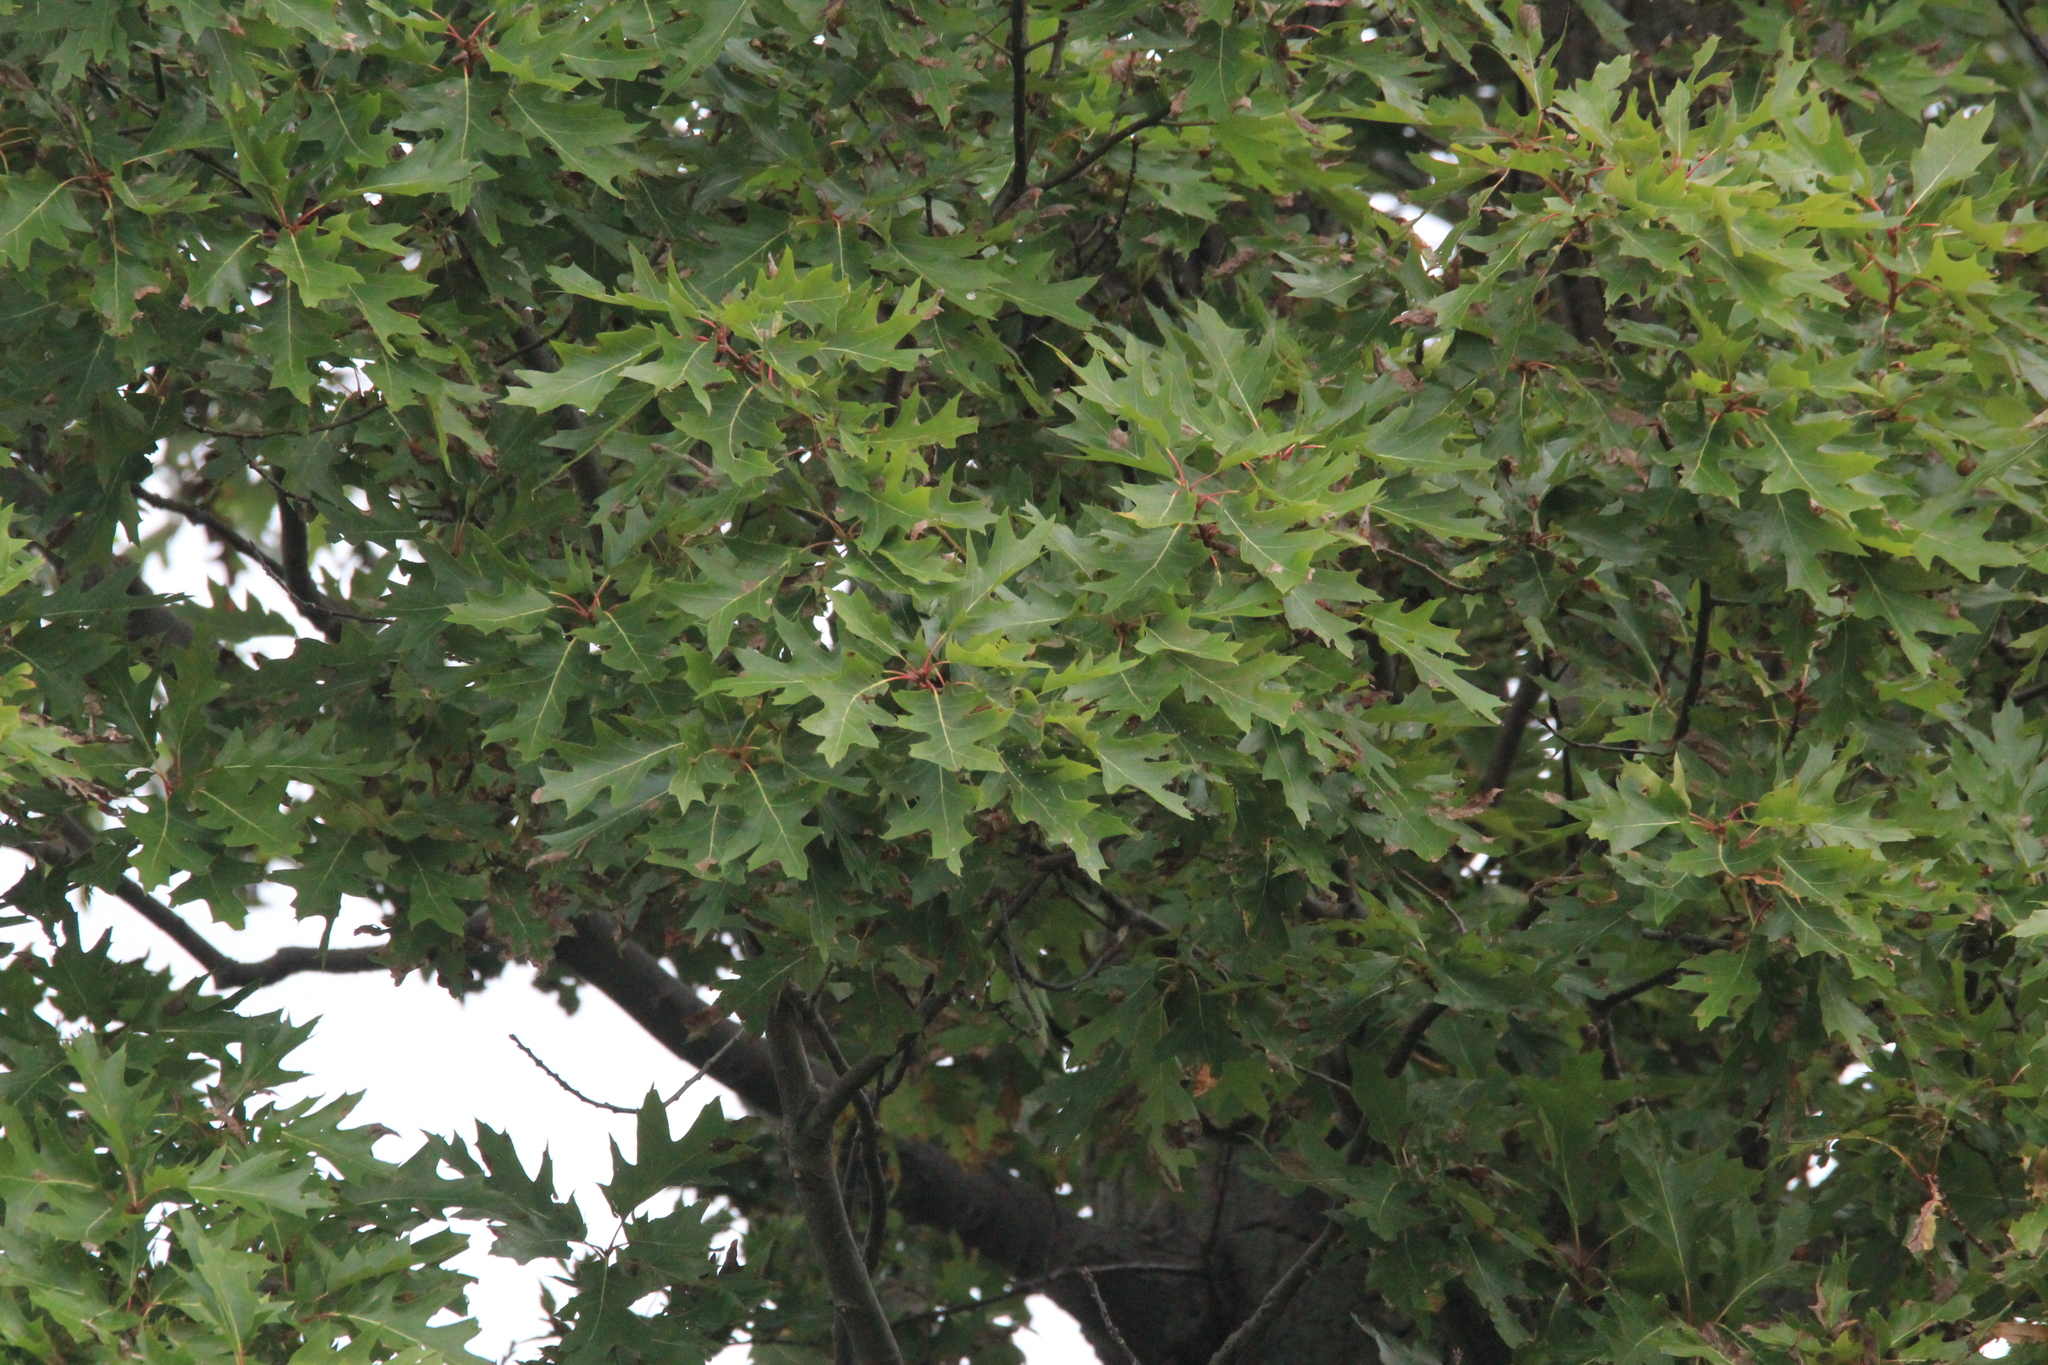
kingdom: Plantae
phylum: Tracheophyta
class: Magnoliopsida
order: Fagales
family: Fagaceae
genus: Quercus
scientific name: Quercus rubra
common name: Red oak
